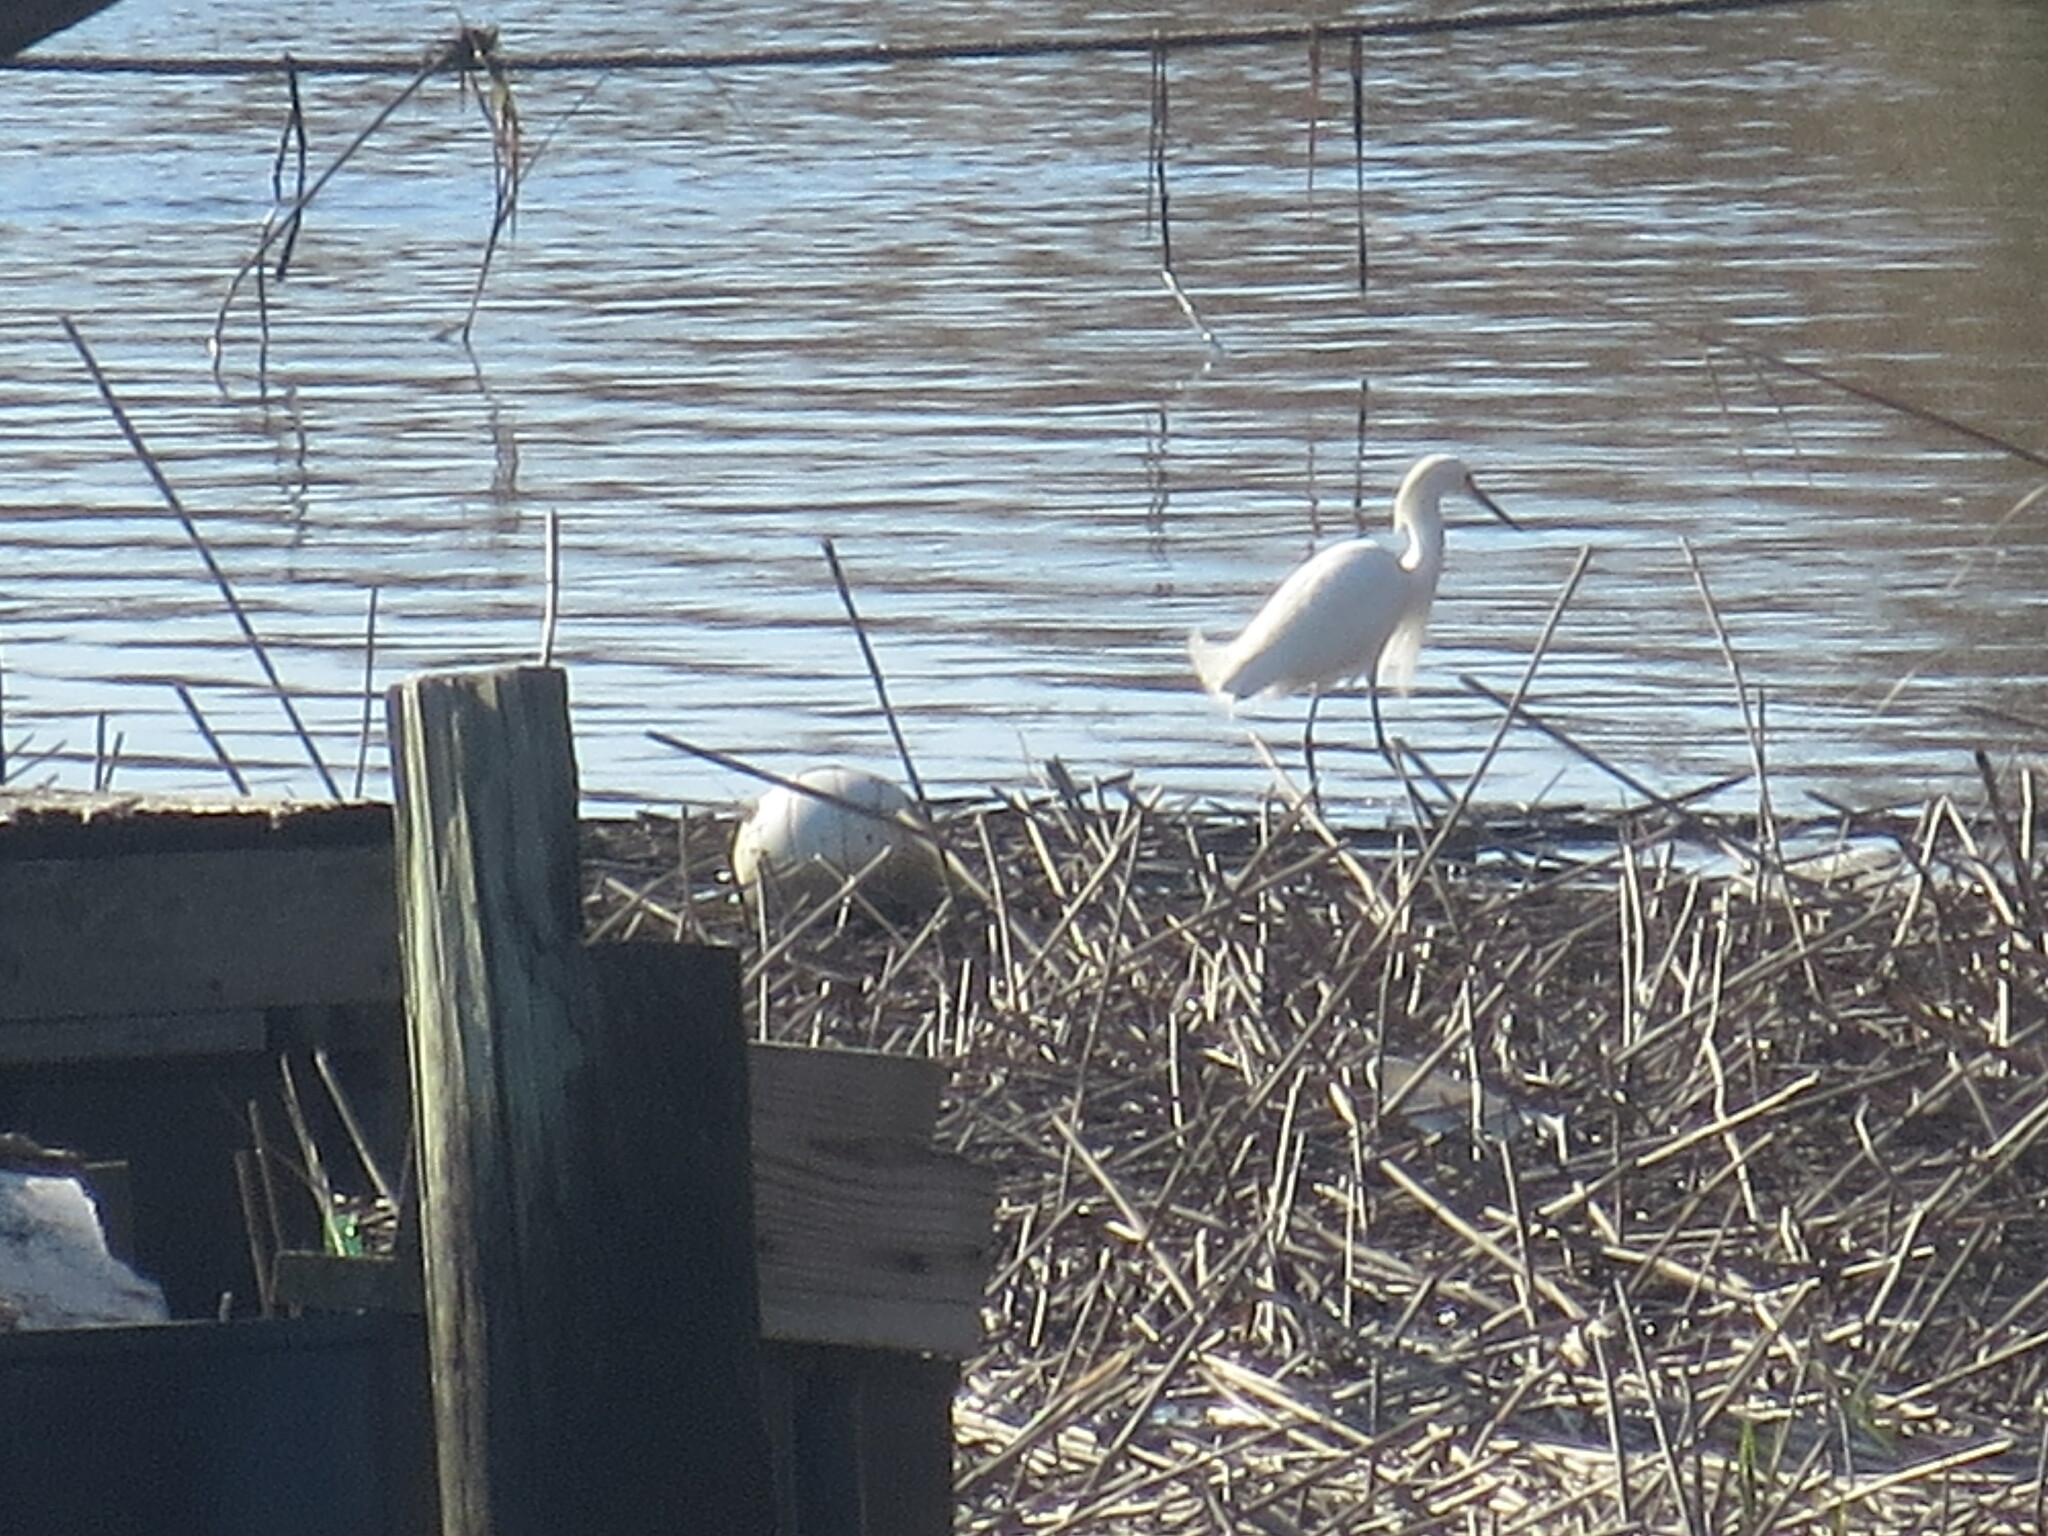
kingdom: Animalia
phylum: Chordata
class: Aves
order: Pelecaniformes
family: Ardeidae
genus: Egretta
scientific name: Egretta thula
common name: Snowy egret
